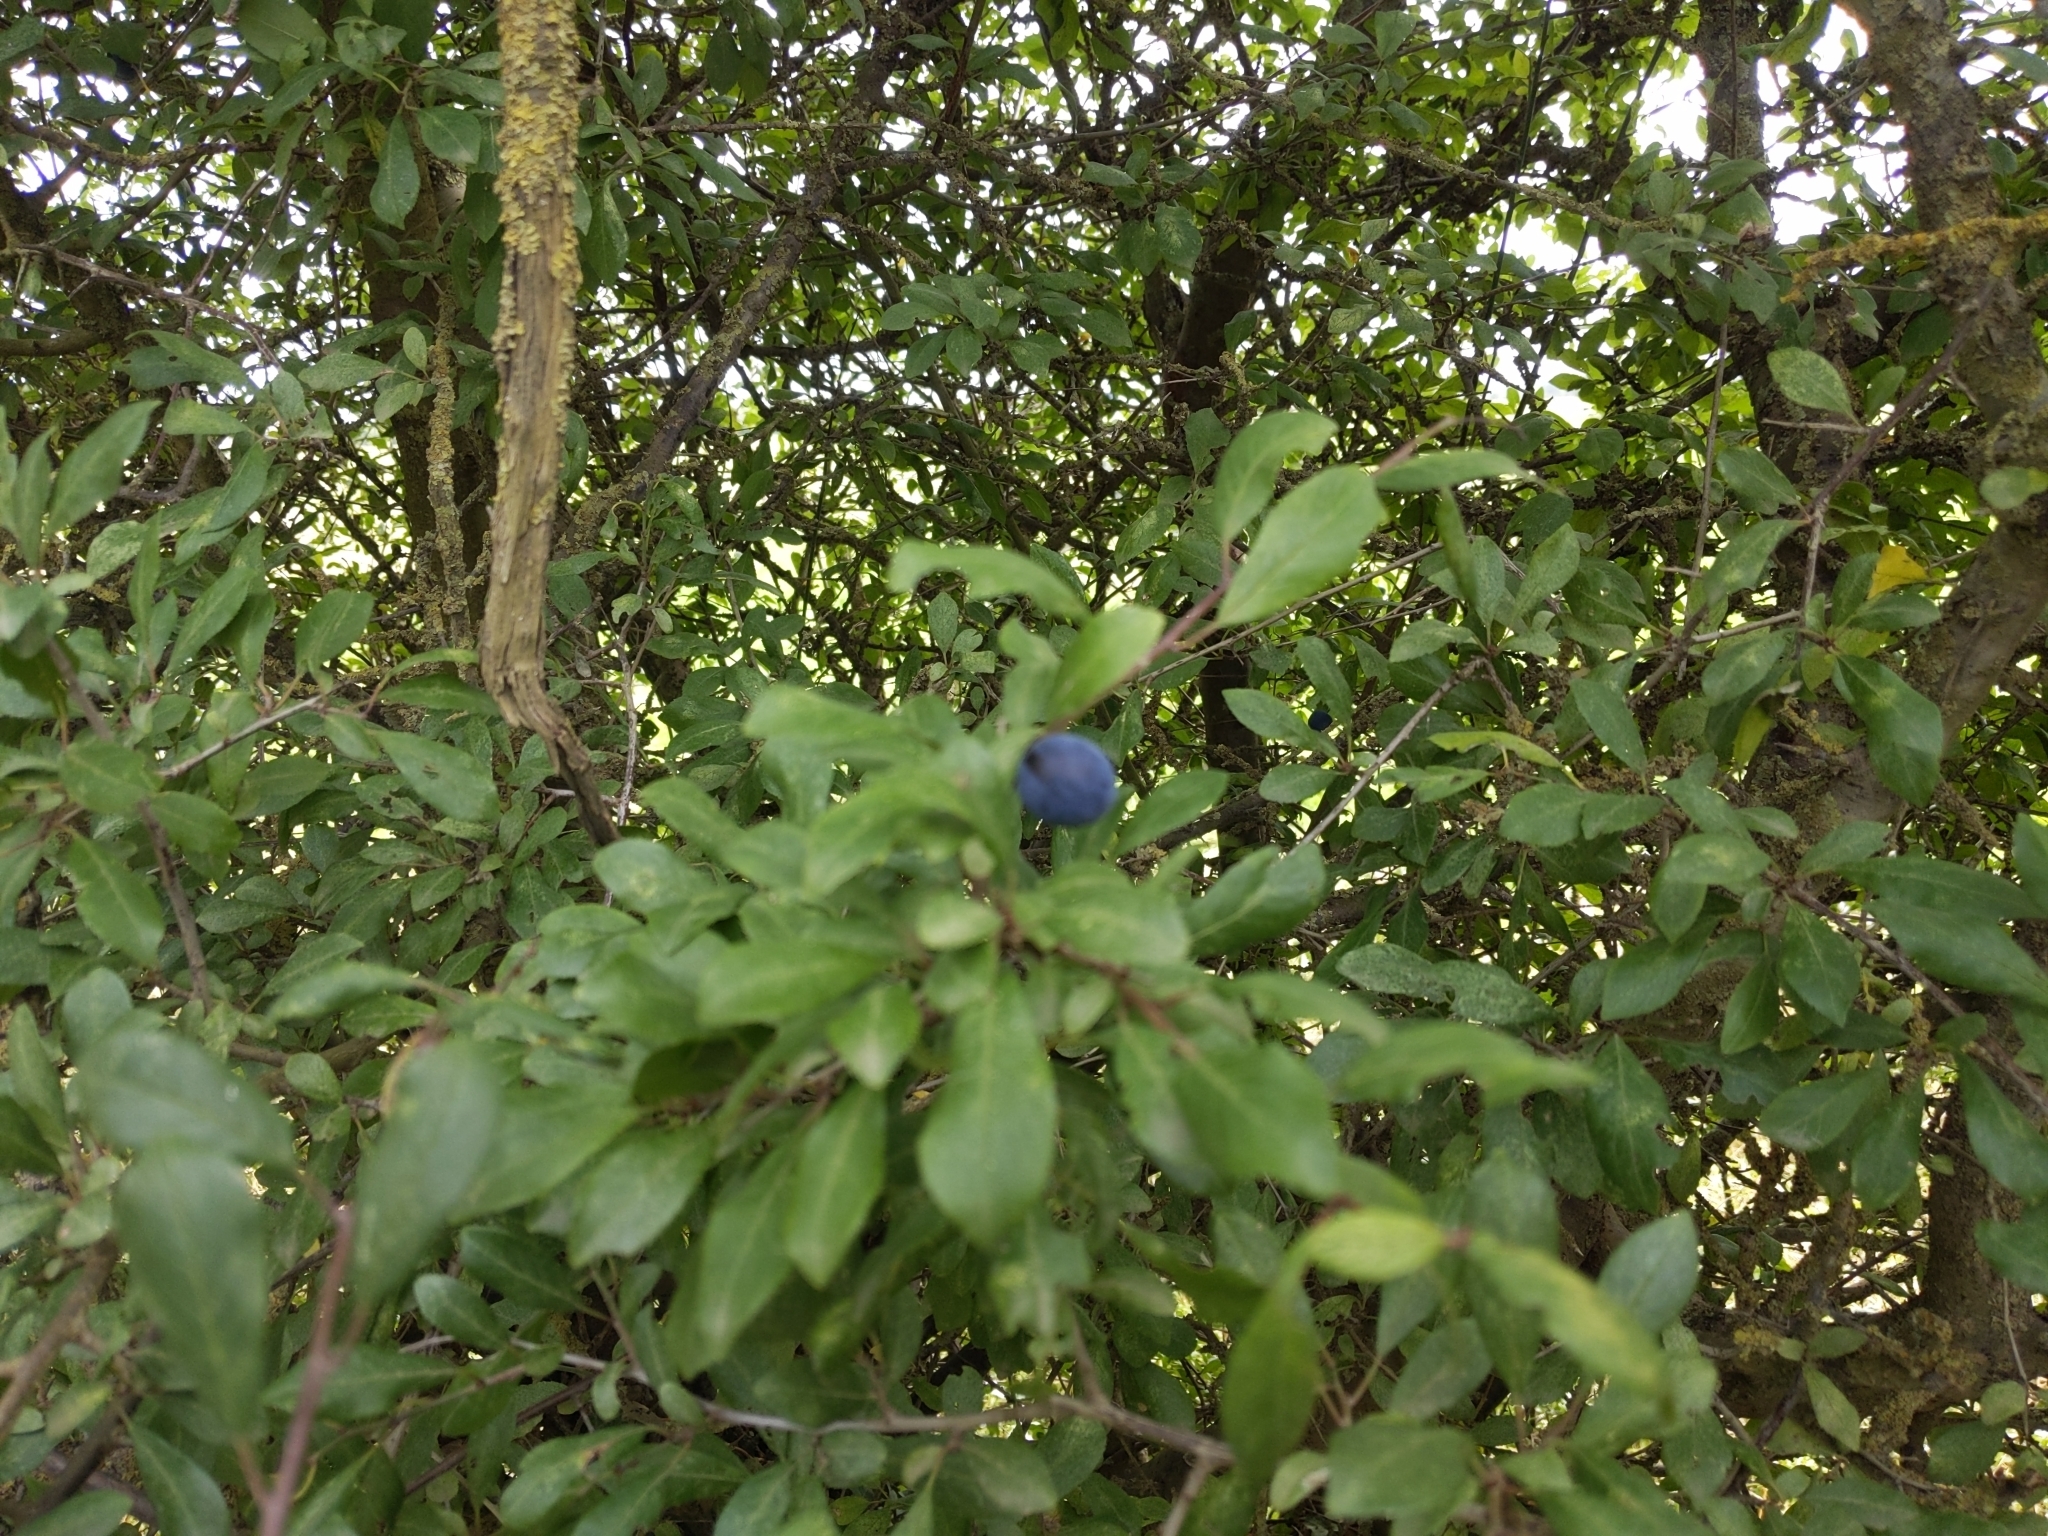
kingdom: Plantae
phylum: Tracheophyta
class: Magnoliopsida
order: Rosales
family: Rosaceae
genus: Prunus
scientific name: Prunus spinosa
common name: Blackthorn
